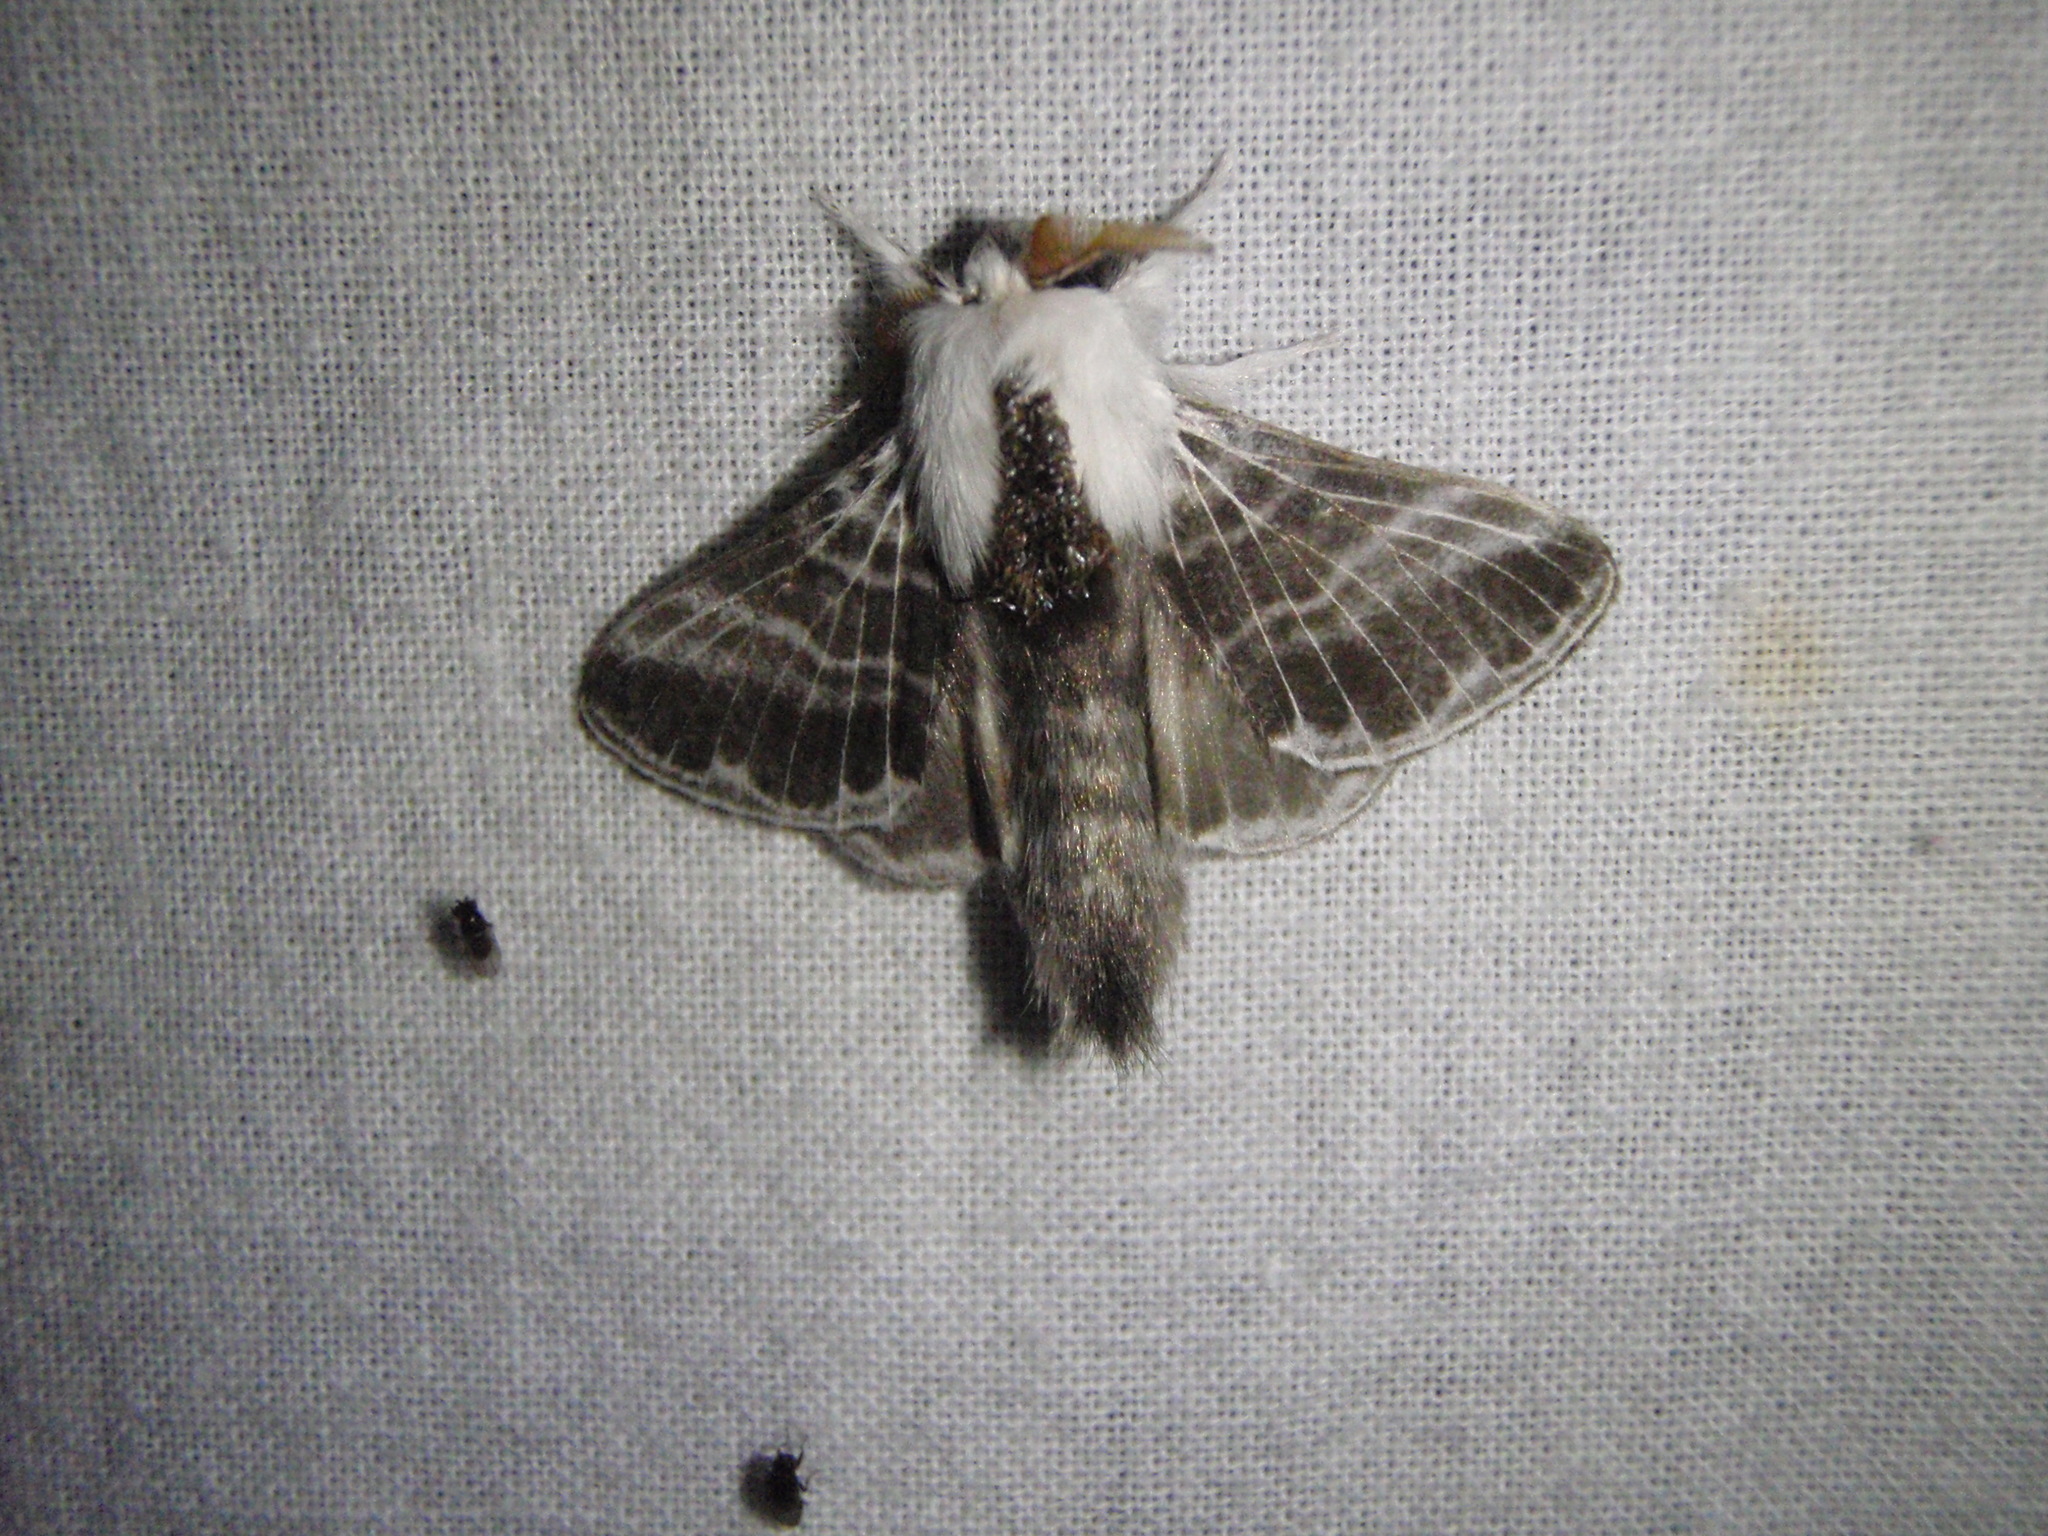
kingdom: Animalia
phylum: Arthropoda
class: Insecta
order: Lepidoptera
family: Lasiocampidae
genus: Tolype
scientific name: Tolype velleda
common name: Large tolype moth
